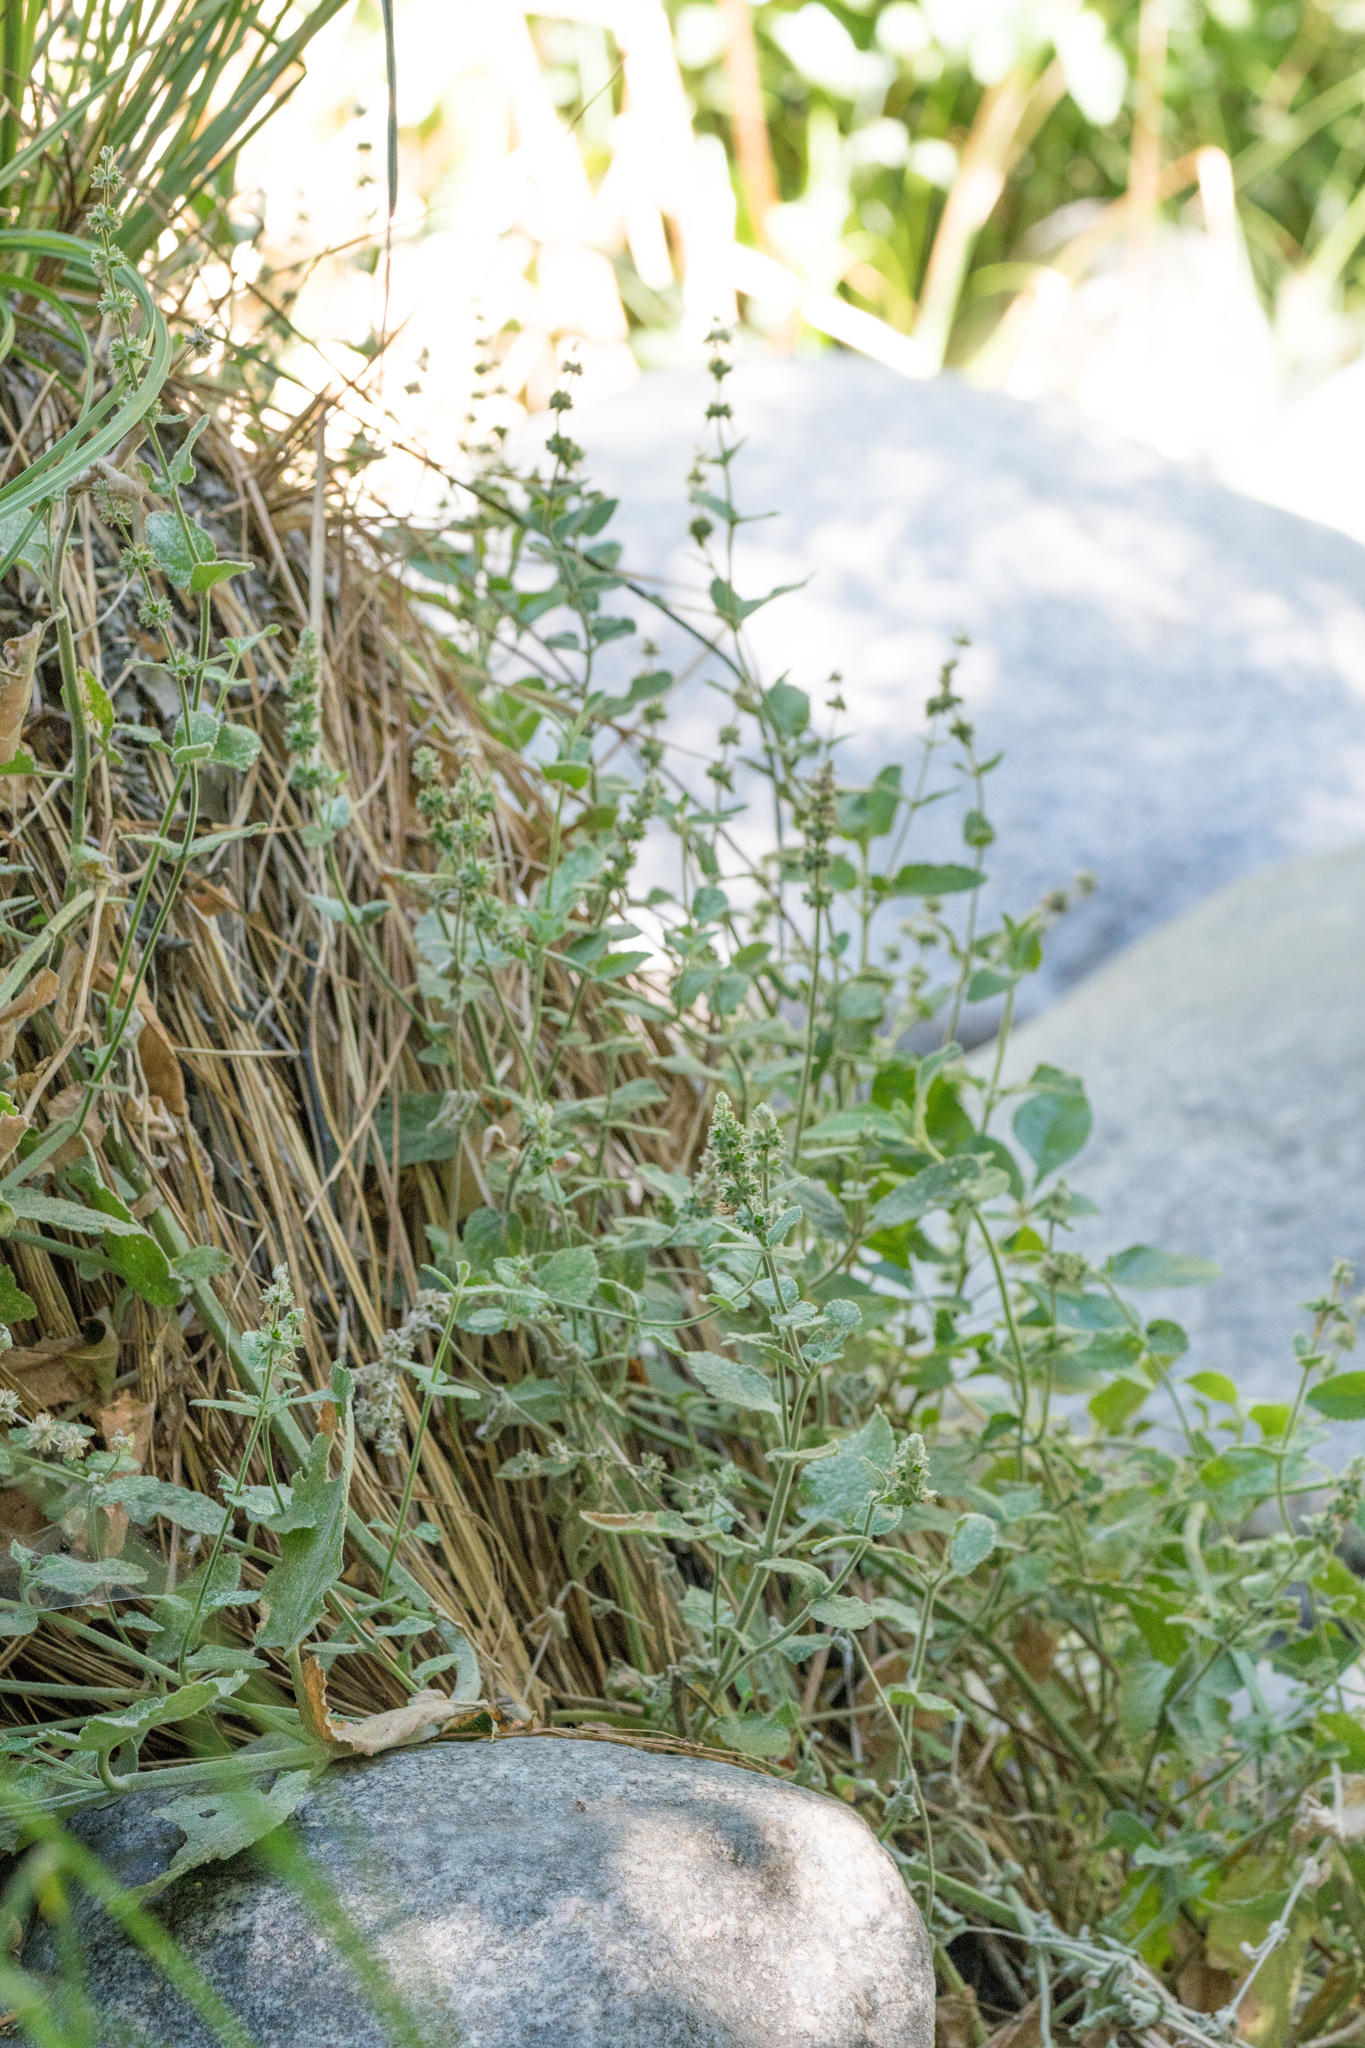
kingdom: Plantae
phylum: Tracheophyta
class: Magnoliopsida
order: Lamiales
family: Lamiaceae
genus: Stachys
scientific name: Stachys albens
